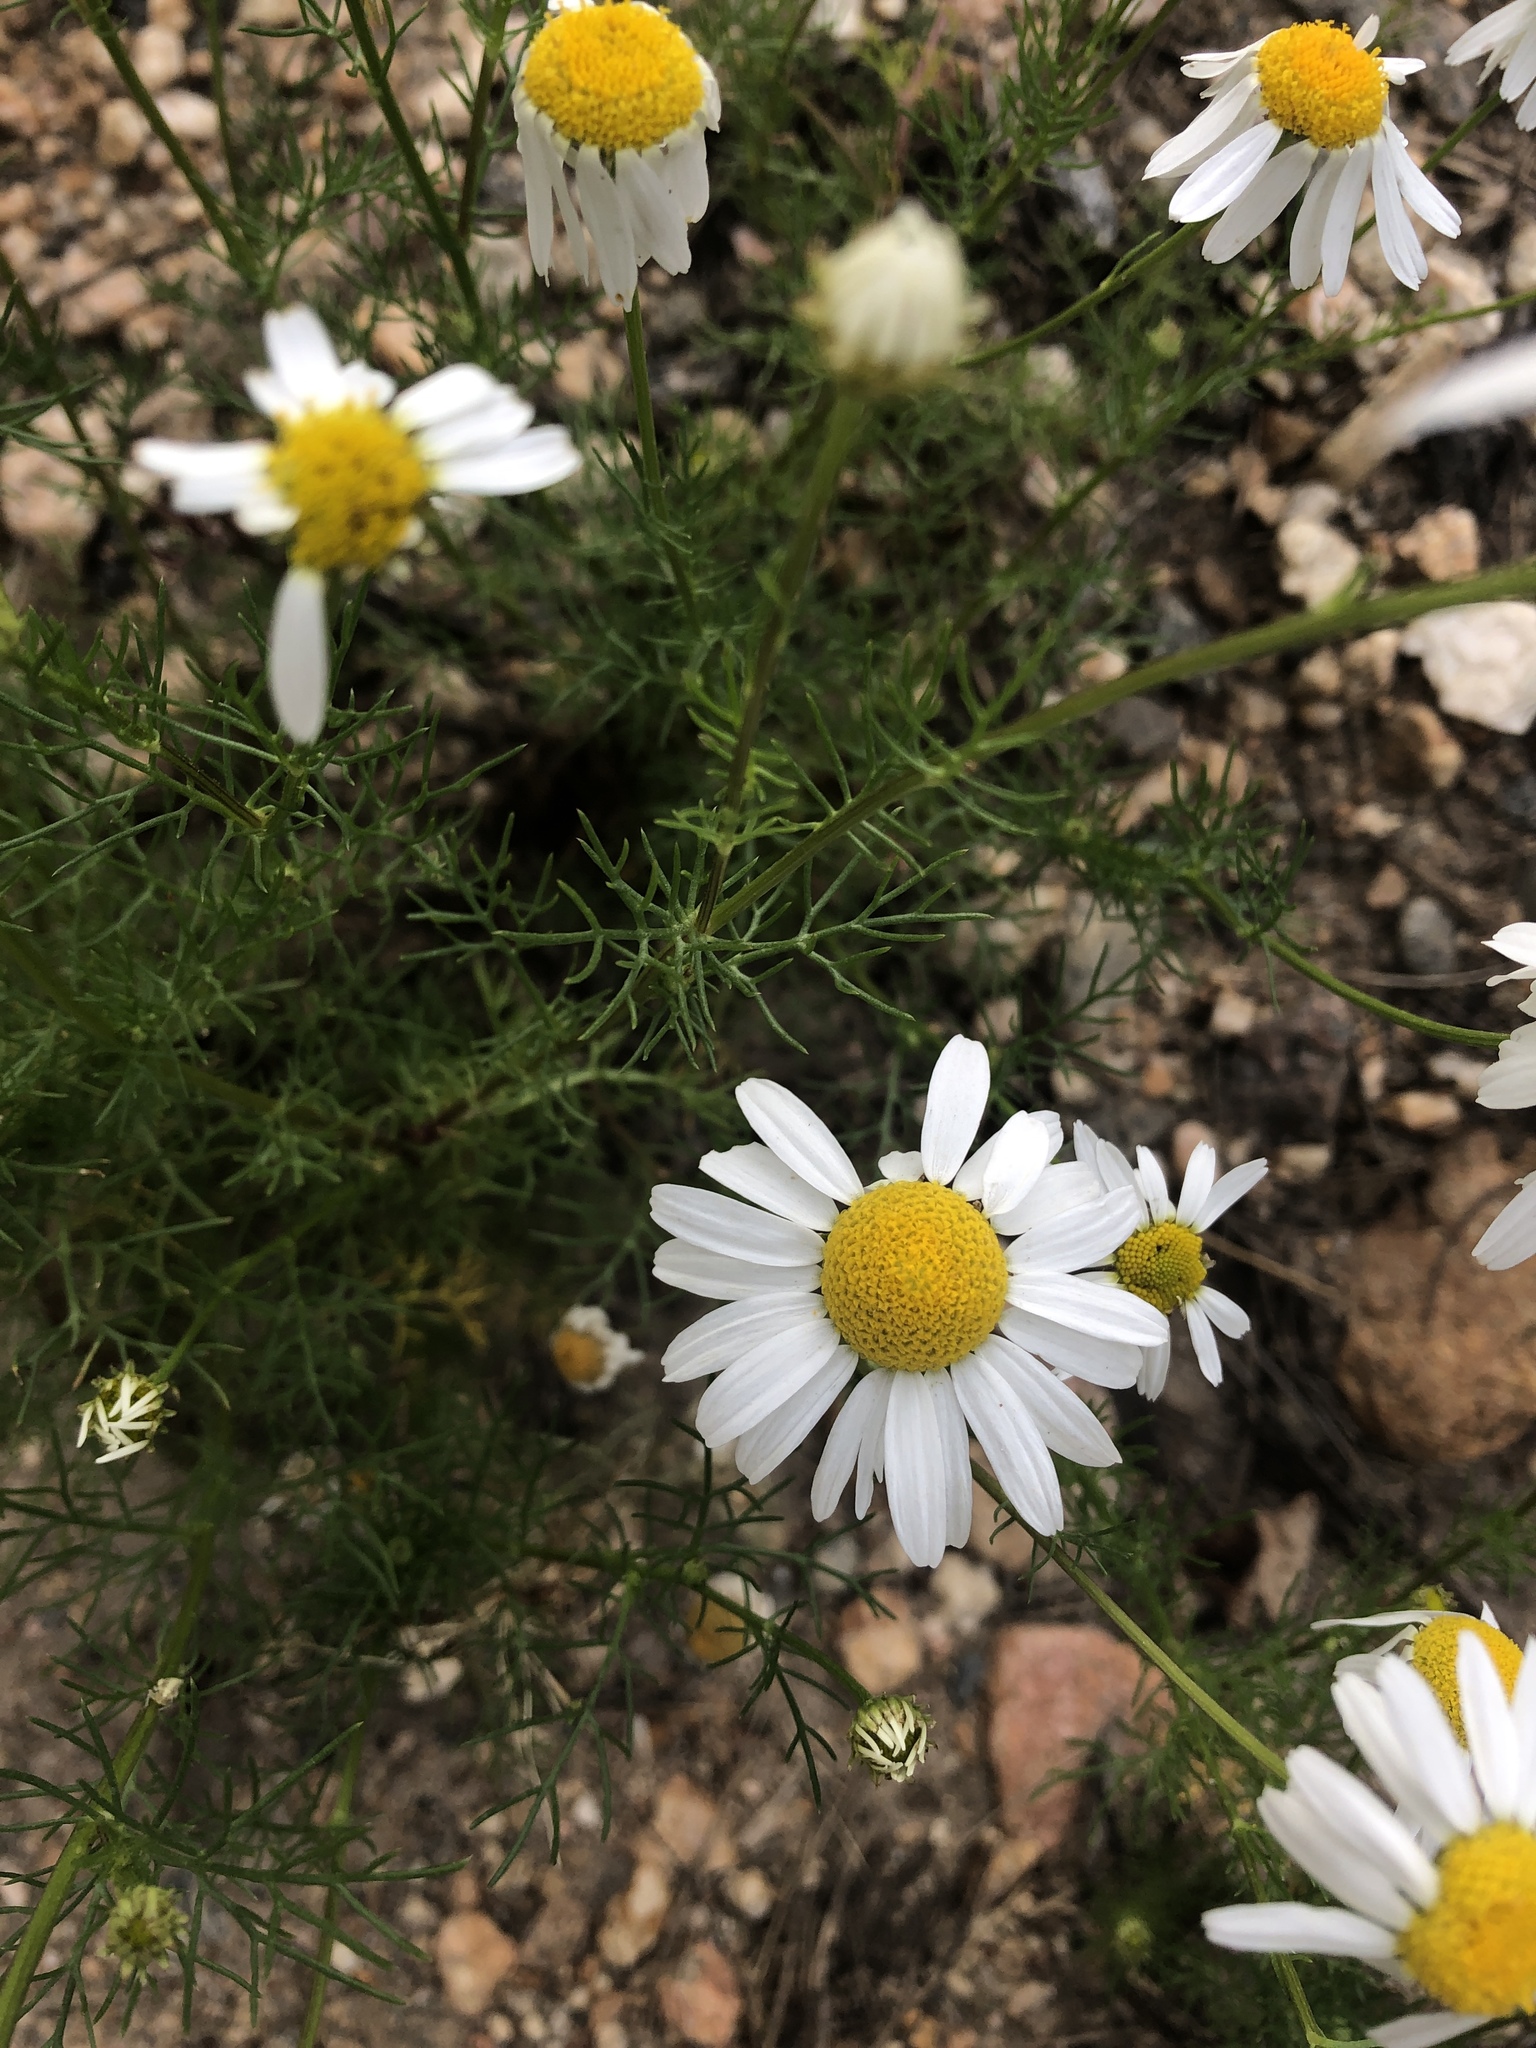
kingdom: Plantae
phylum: Tracheophyta
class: Magnoliopsida
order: Asterales
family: Asteraceae
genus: Tripleurospermum
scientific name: Tripleurospermum inodorum
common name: Scentless mayweed
